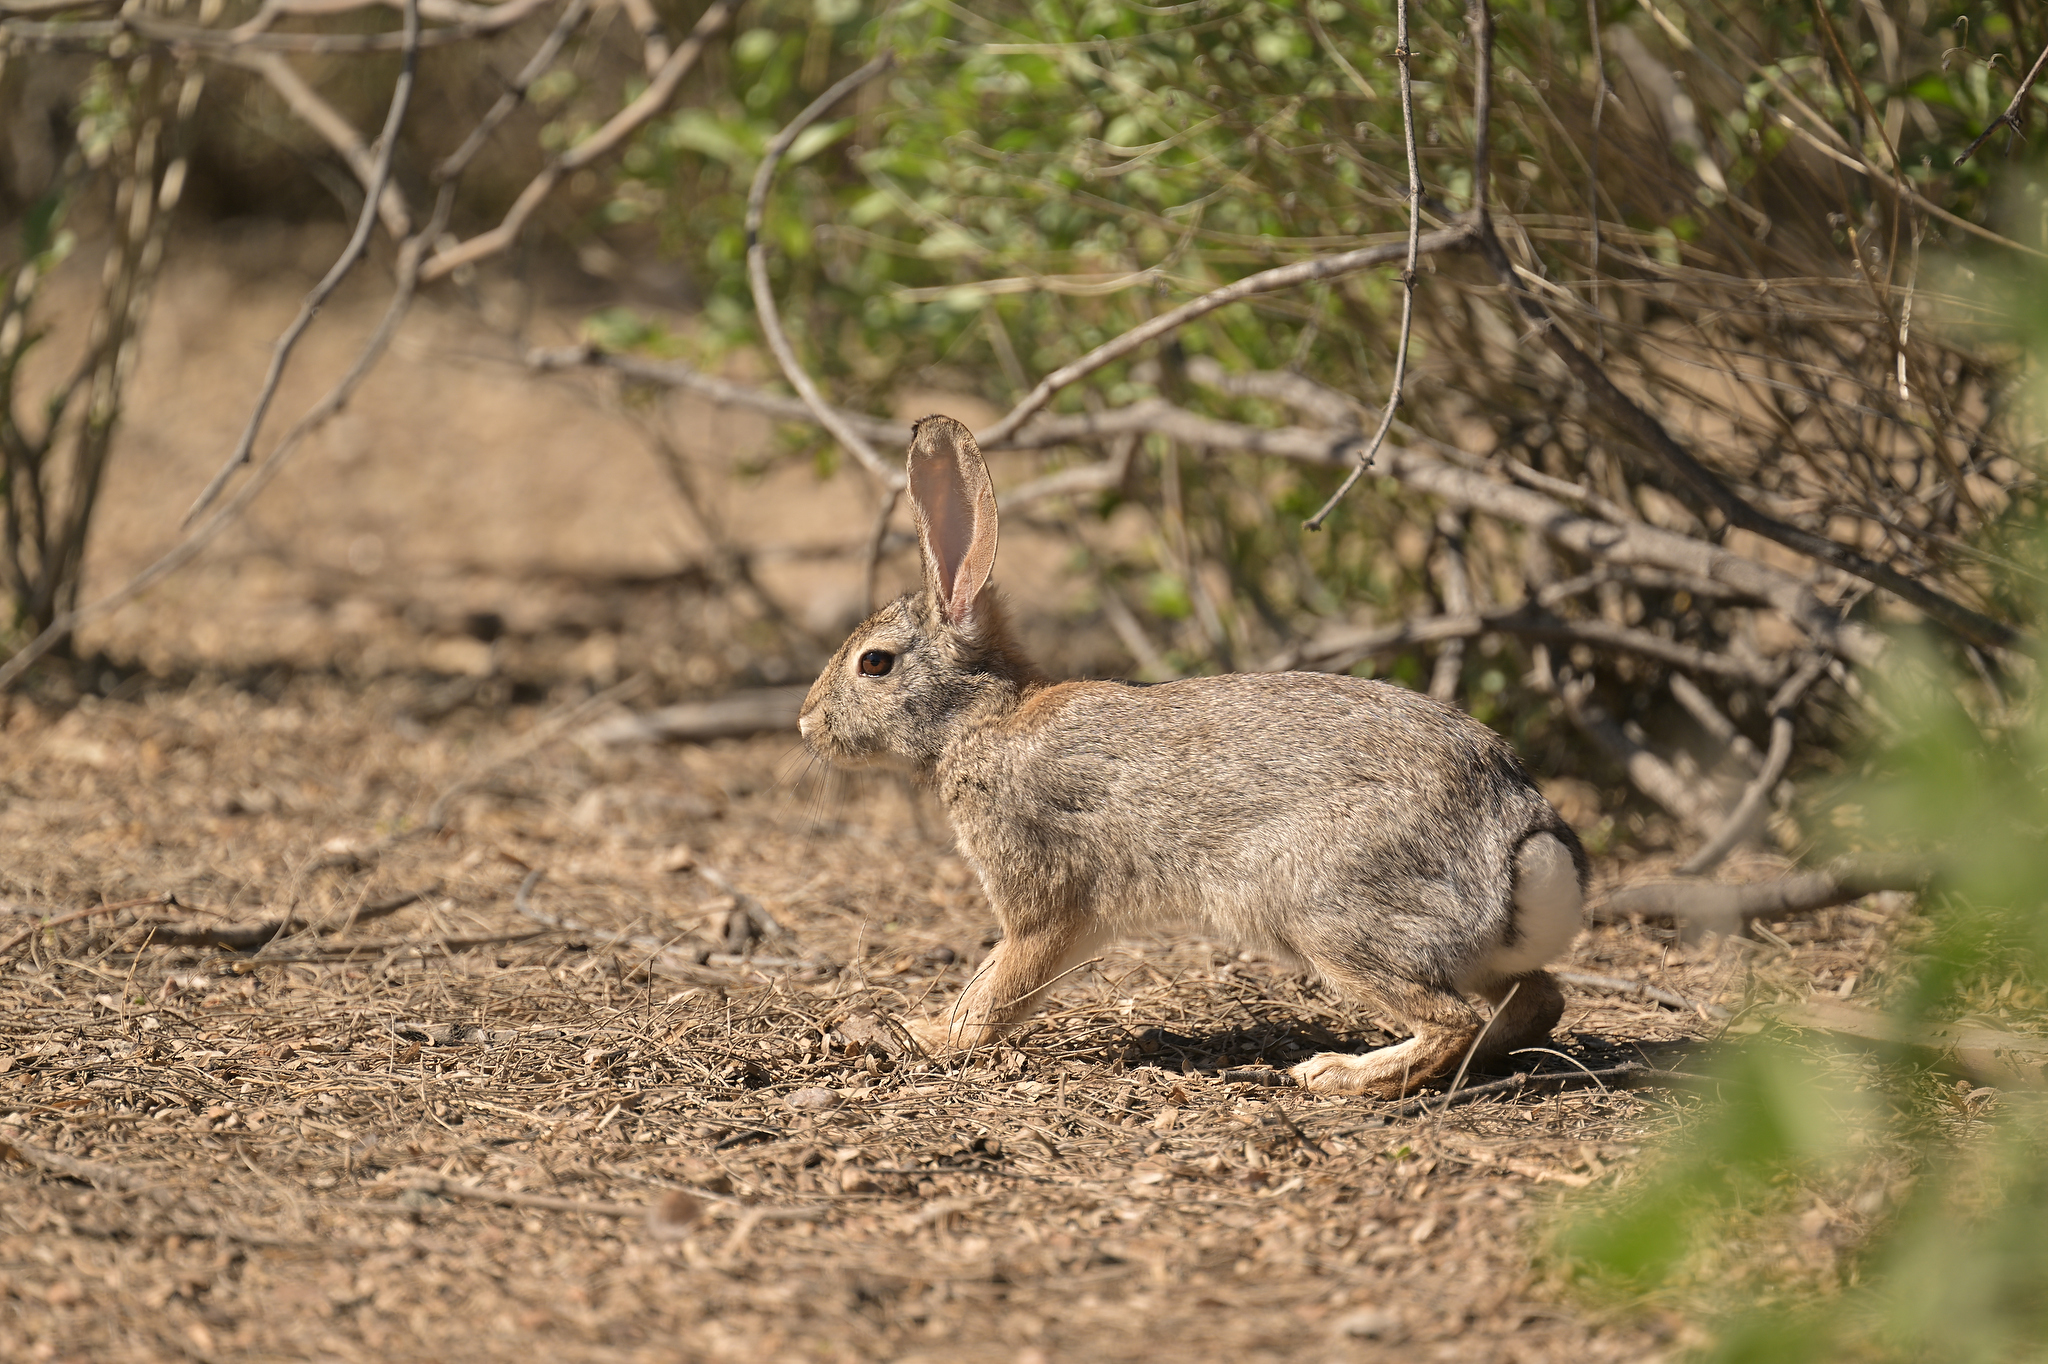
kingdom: Animalia
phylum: Chordata
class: Mammalia
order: Lagomorpha
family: Leporidae
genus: Sylvilagus
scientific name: Sylvilagus audubonii
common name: Desert cottontail
